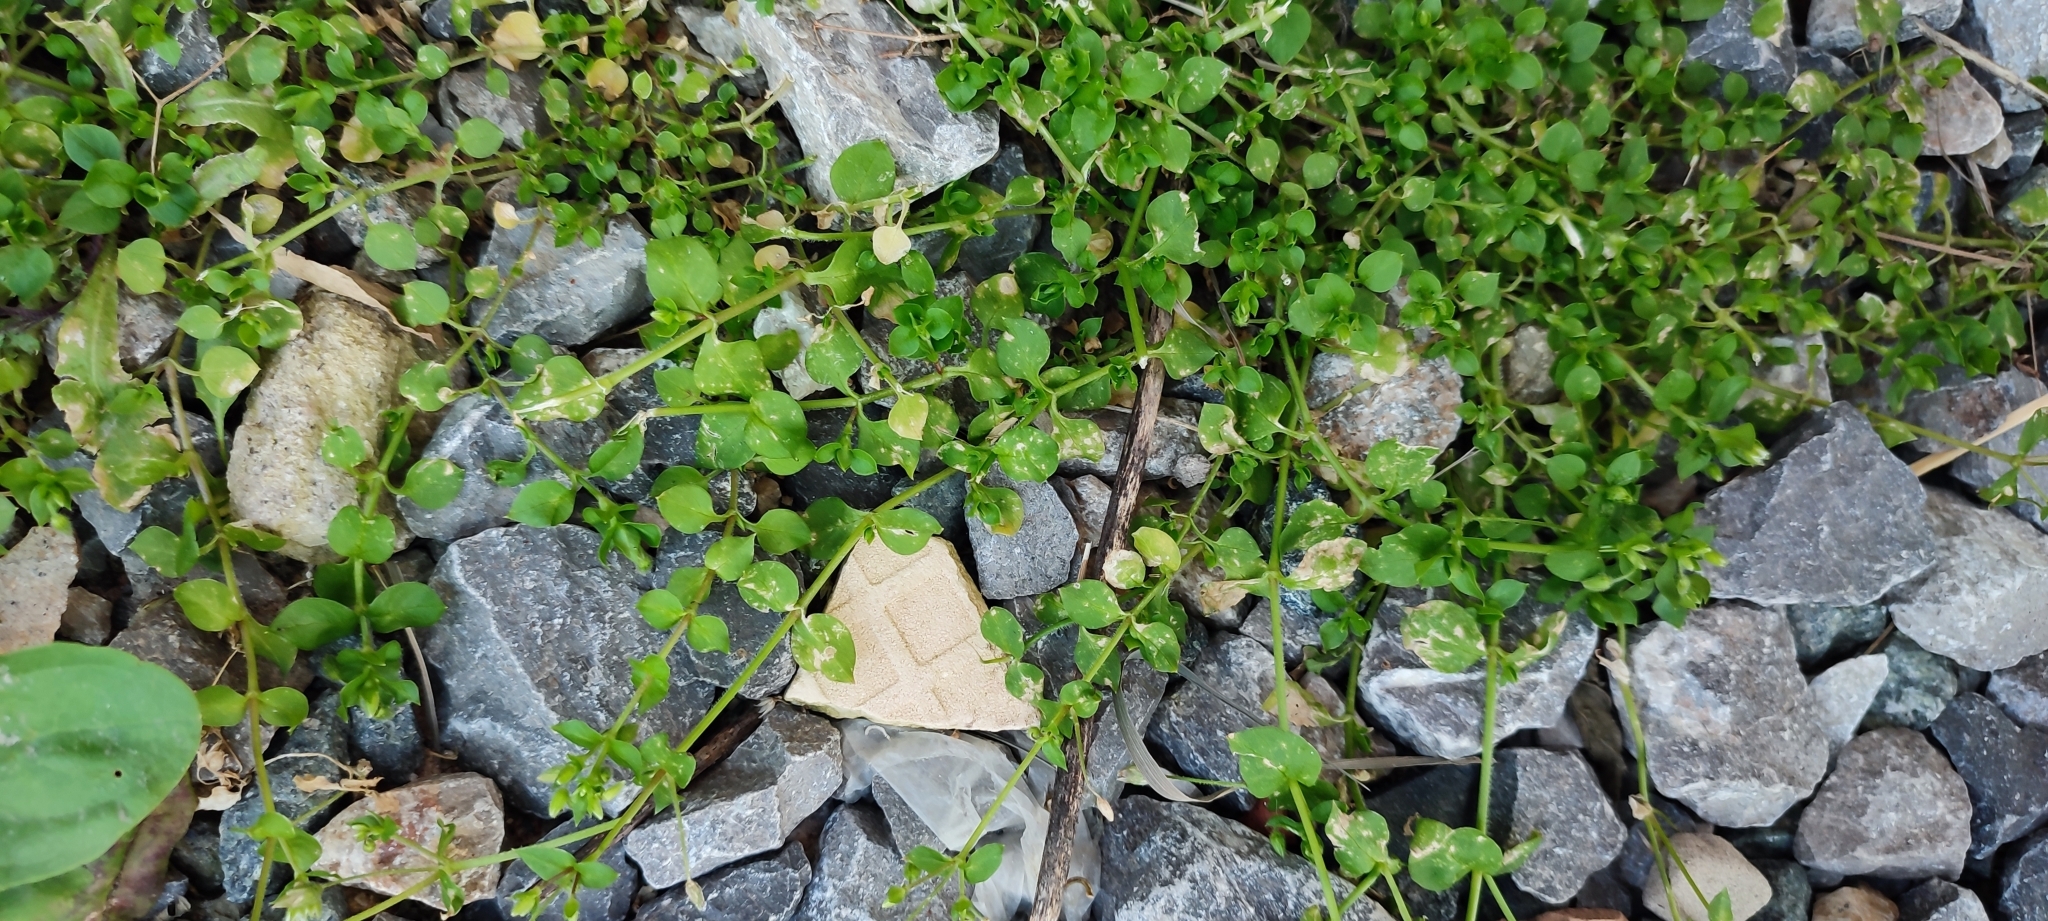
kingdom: Plantae
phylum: Tracheophyta
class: Magnoliopsida
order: Caryophyllales
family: Caryophyllaceae
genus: Stellaria
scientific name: Stellaria media
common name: Common chickweed
